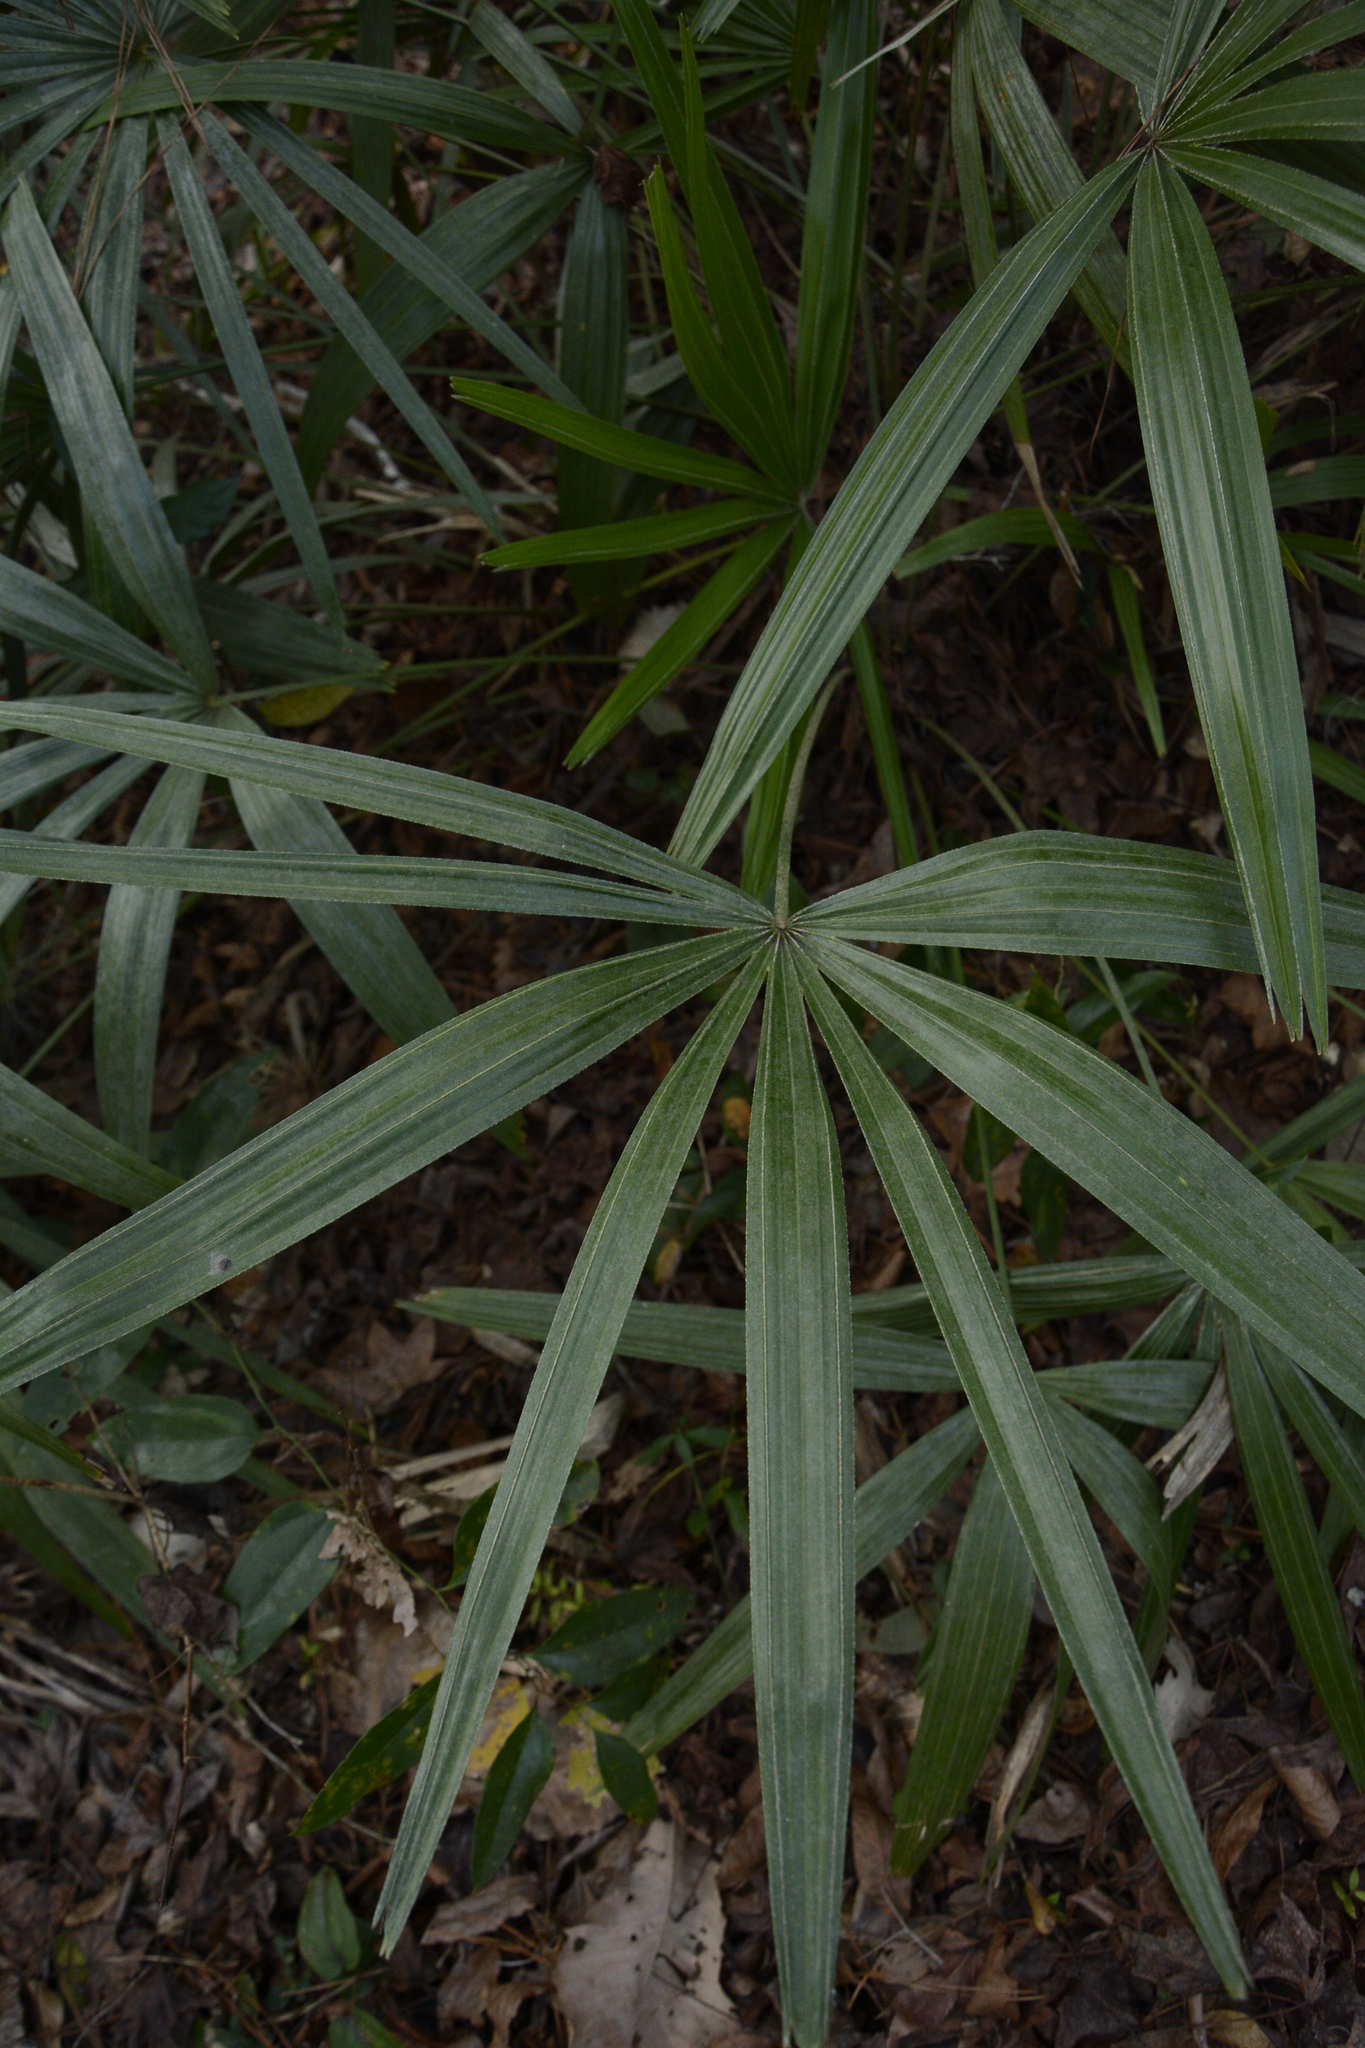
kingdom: Plantae
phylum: Tracheophyta
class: Liliopsida
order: Arecales
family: Arecaceae
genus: Rhapidophyllum
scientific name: Rhapidophyllum hystrix
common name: Porcupine palm
